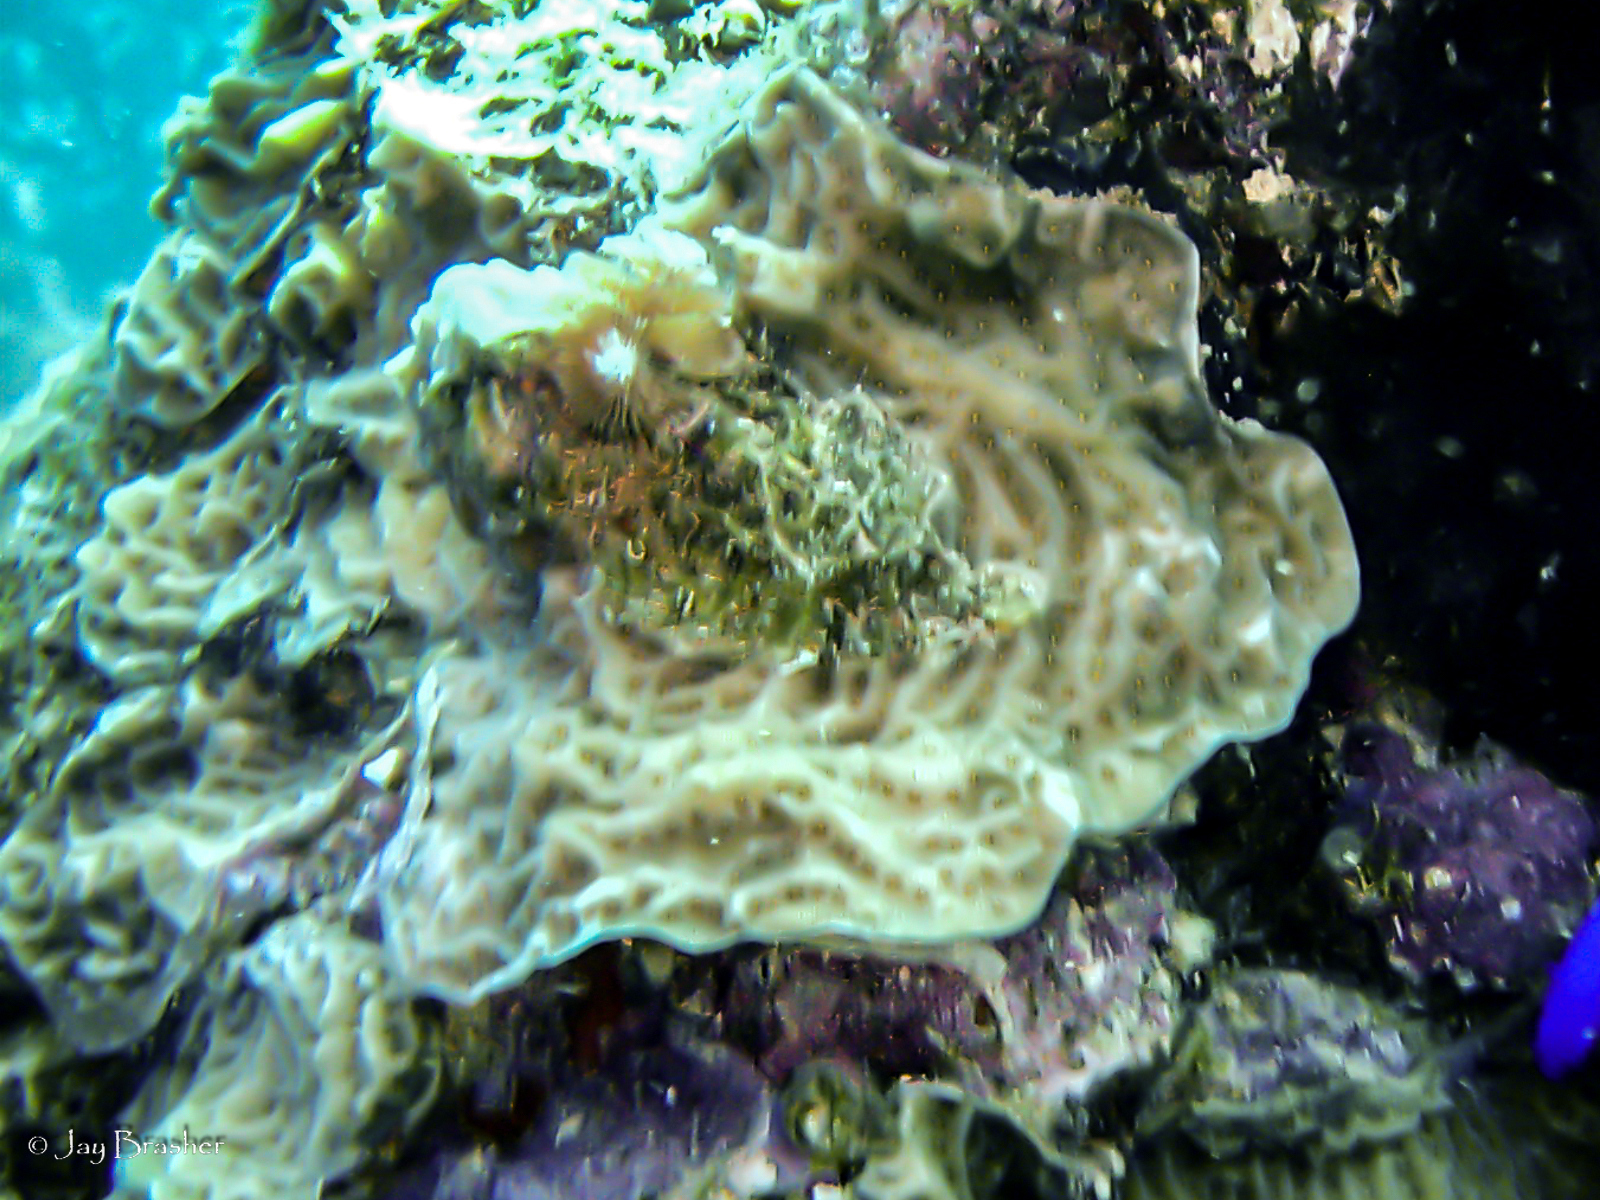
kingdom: Animalia
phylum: Cnidaria
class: Anthozoa
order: Scleractinia
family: Agariciidae
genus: Agaricia
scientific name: Agaricia agaricites
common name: Lettuce coral
